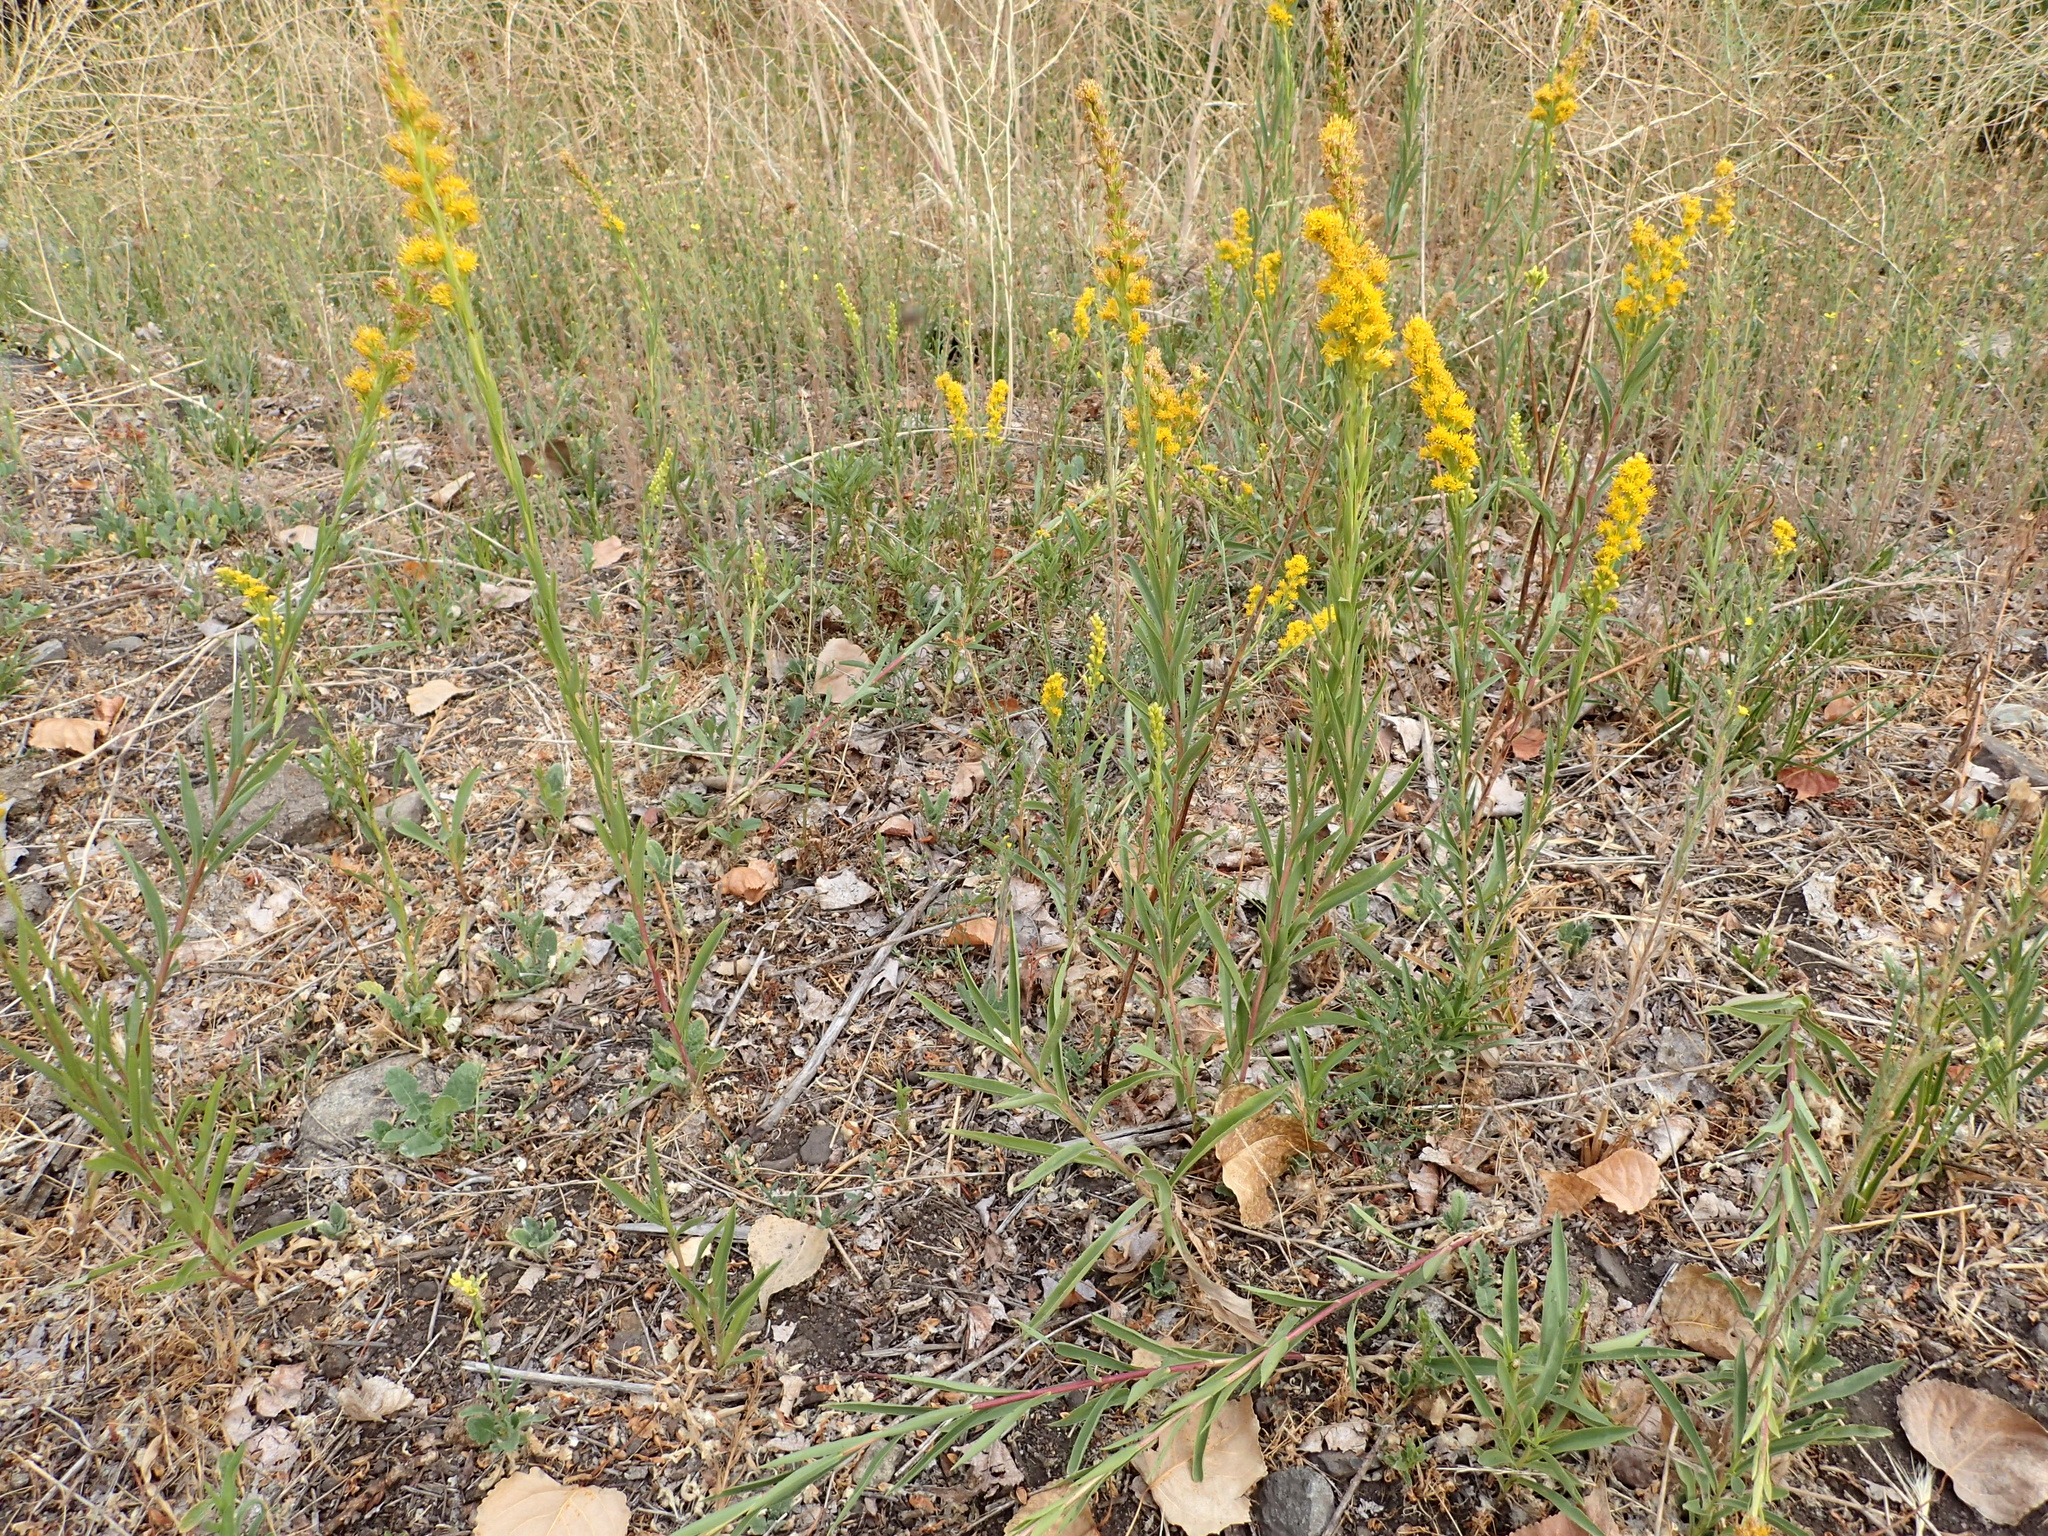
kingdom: Plantae
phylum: Tracheophyta
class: Magnoliopsida
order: Asterales
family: Asteraceae
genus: Solidago
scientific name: Solidago chilensis
